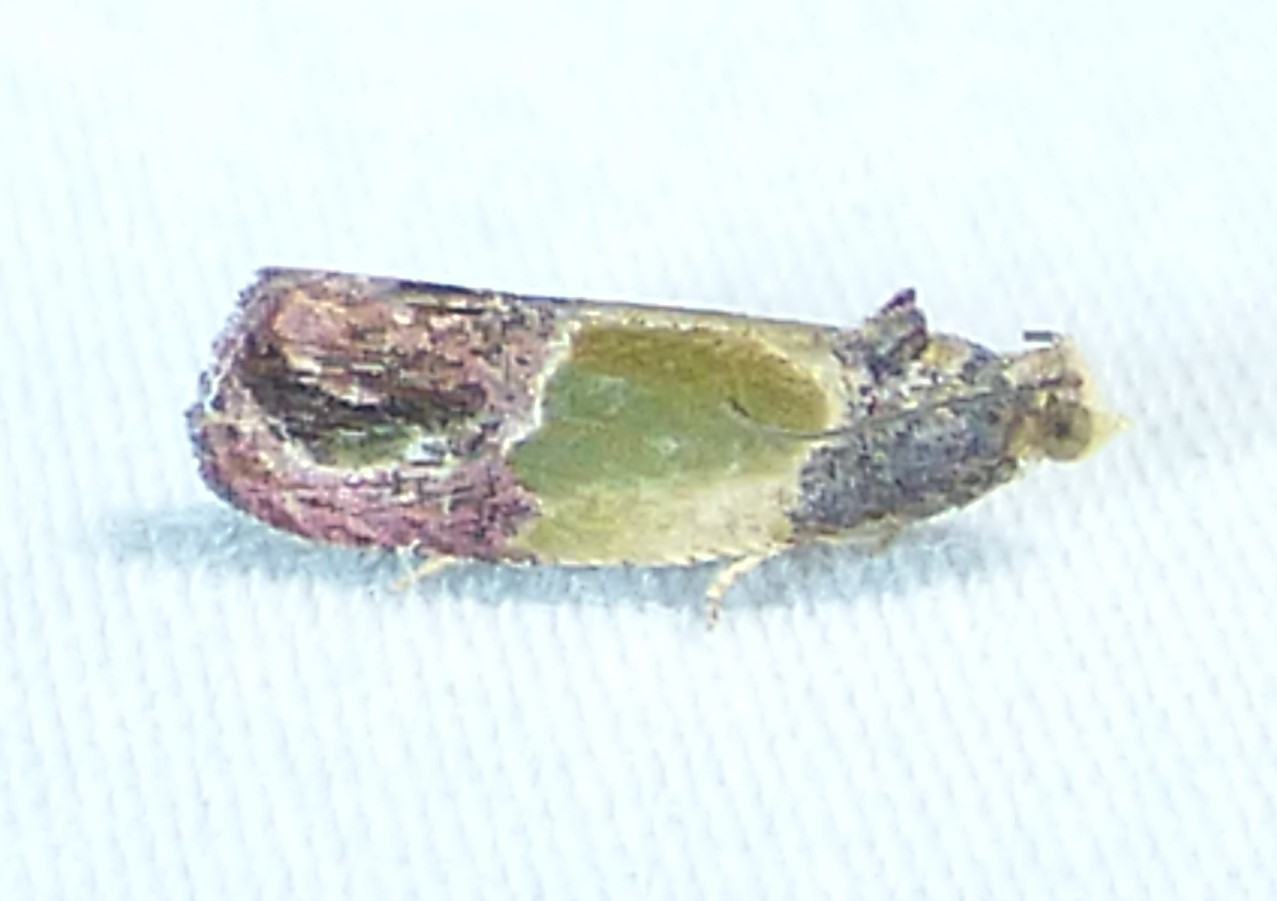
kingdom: Animalia
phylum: Arthropoda
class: Insecta
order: Lepidoptera
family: Tortricidae
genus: Eumarozia
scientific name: Eumarozia malachitana
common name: Sculptured moth
